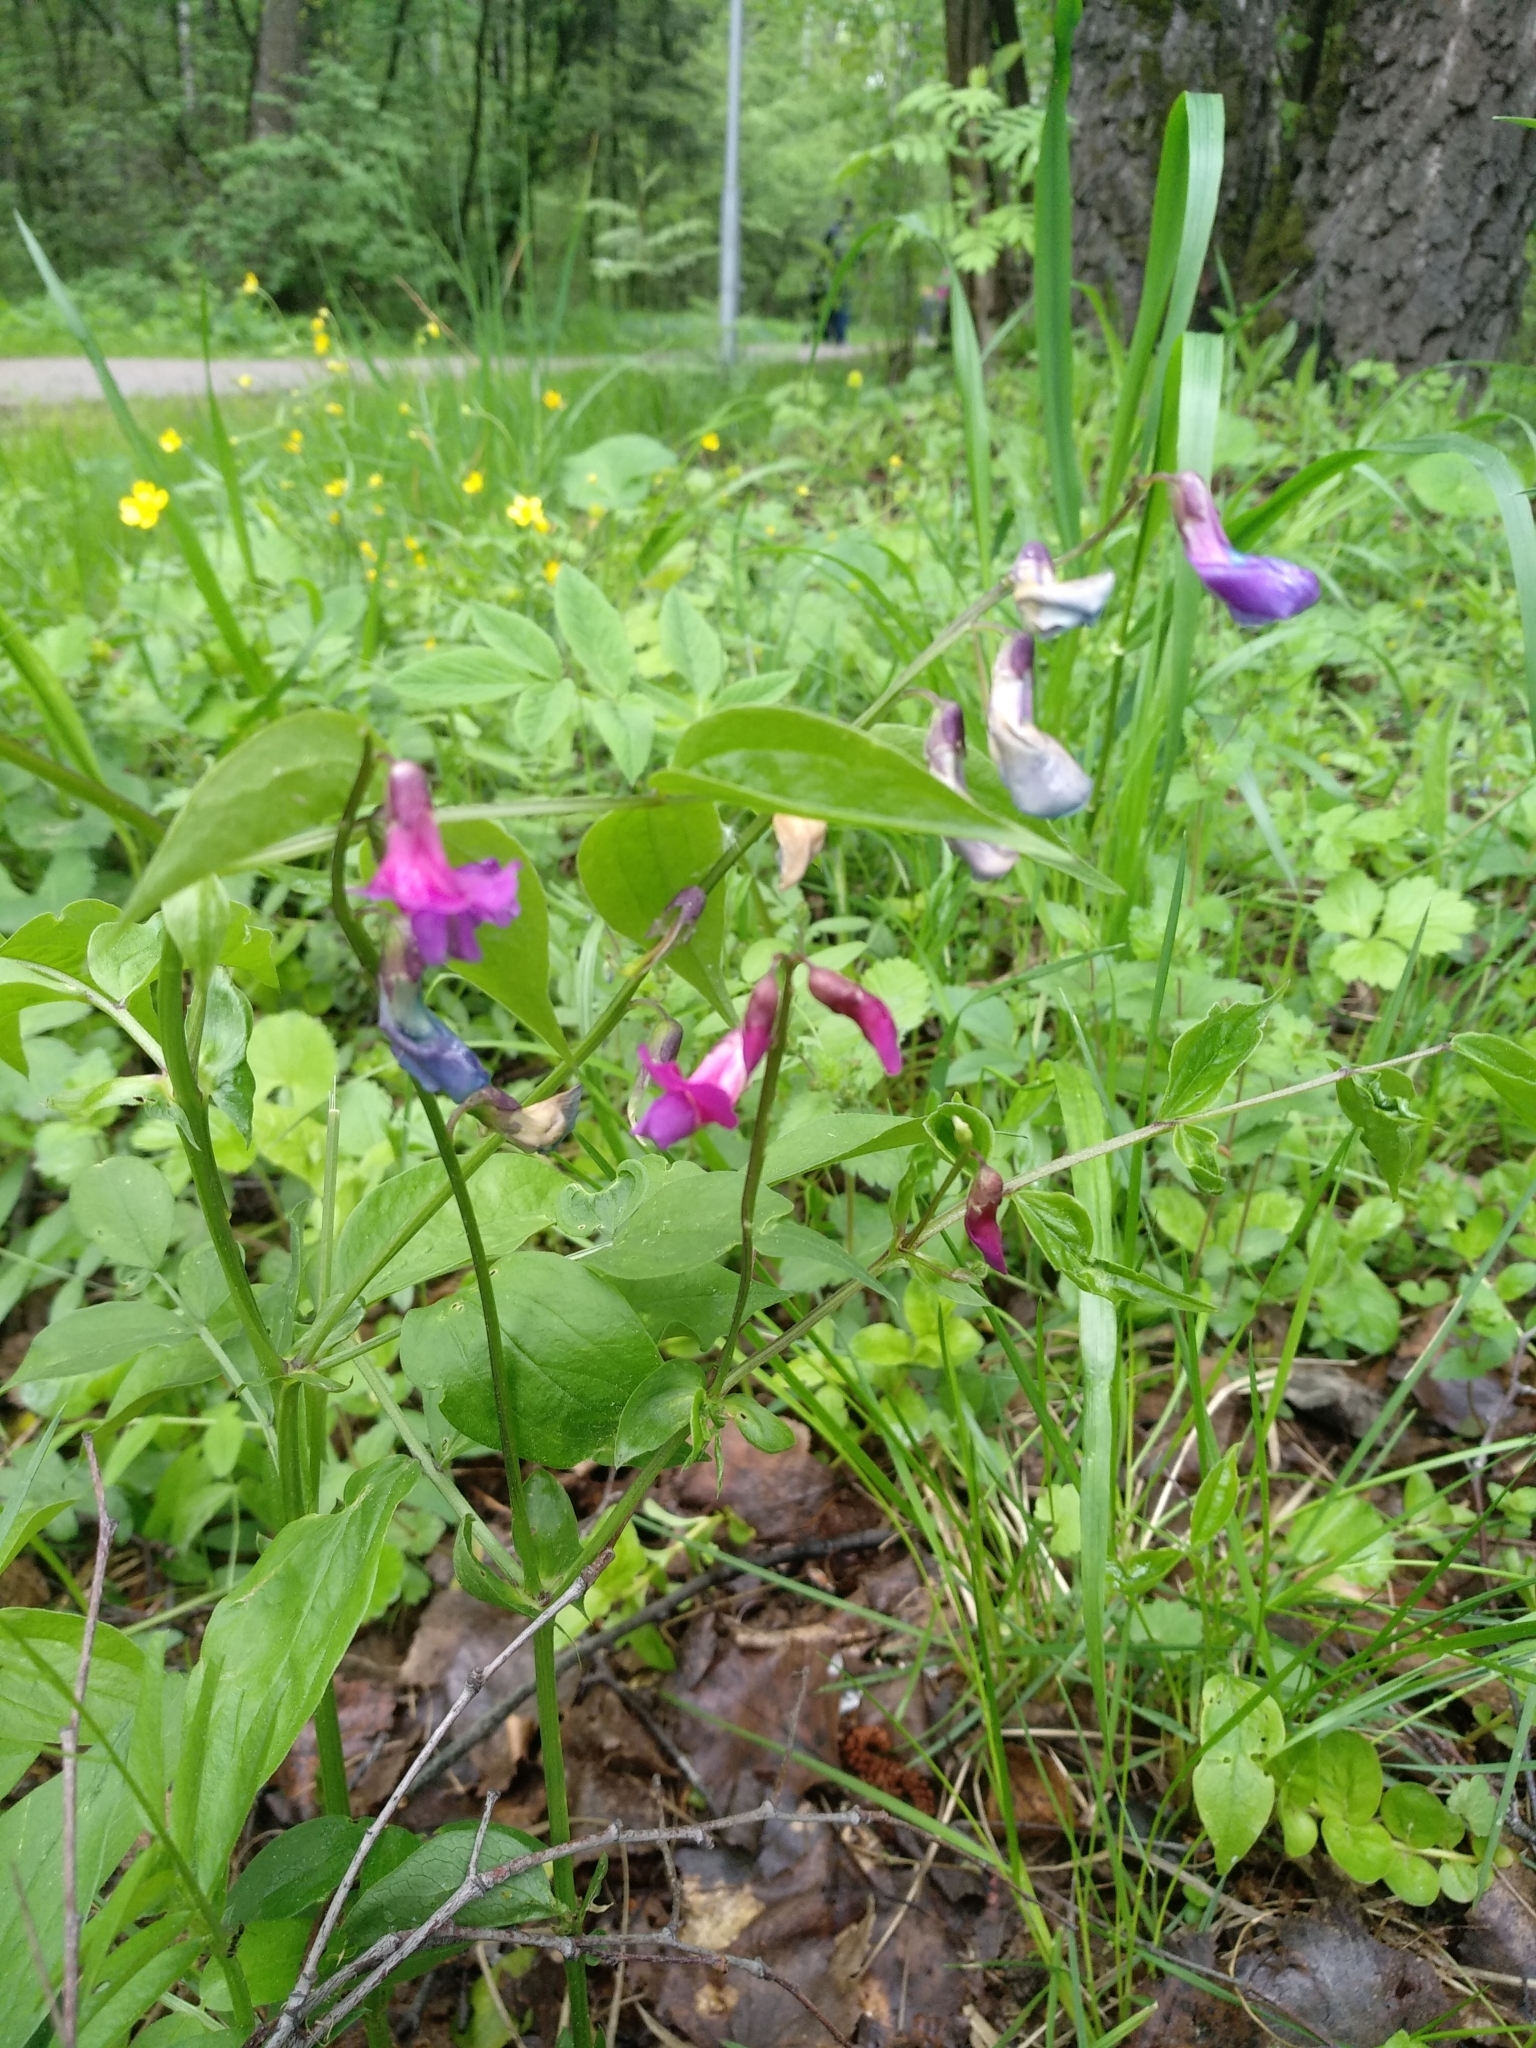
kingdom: Plantae
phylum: Tracheophyta
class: Magnoliopsida
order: Fabales
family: Fabaceae
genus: Lathyrus
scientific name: Lathyrus vernus
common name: Spring pea
